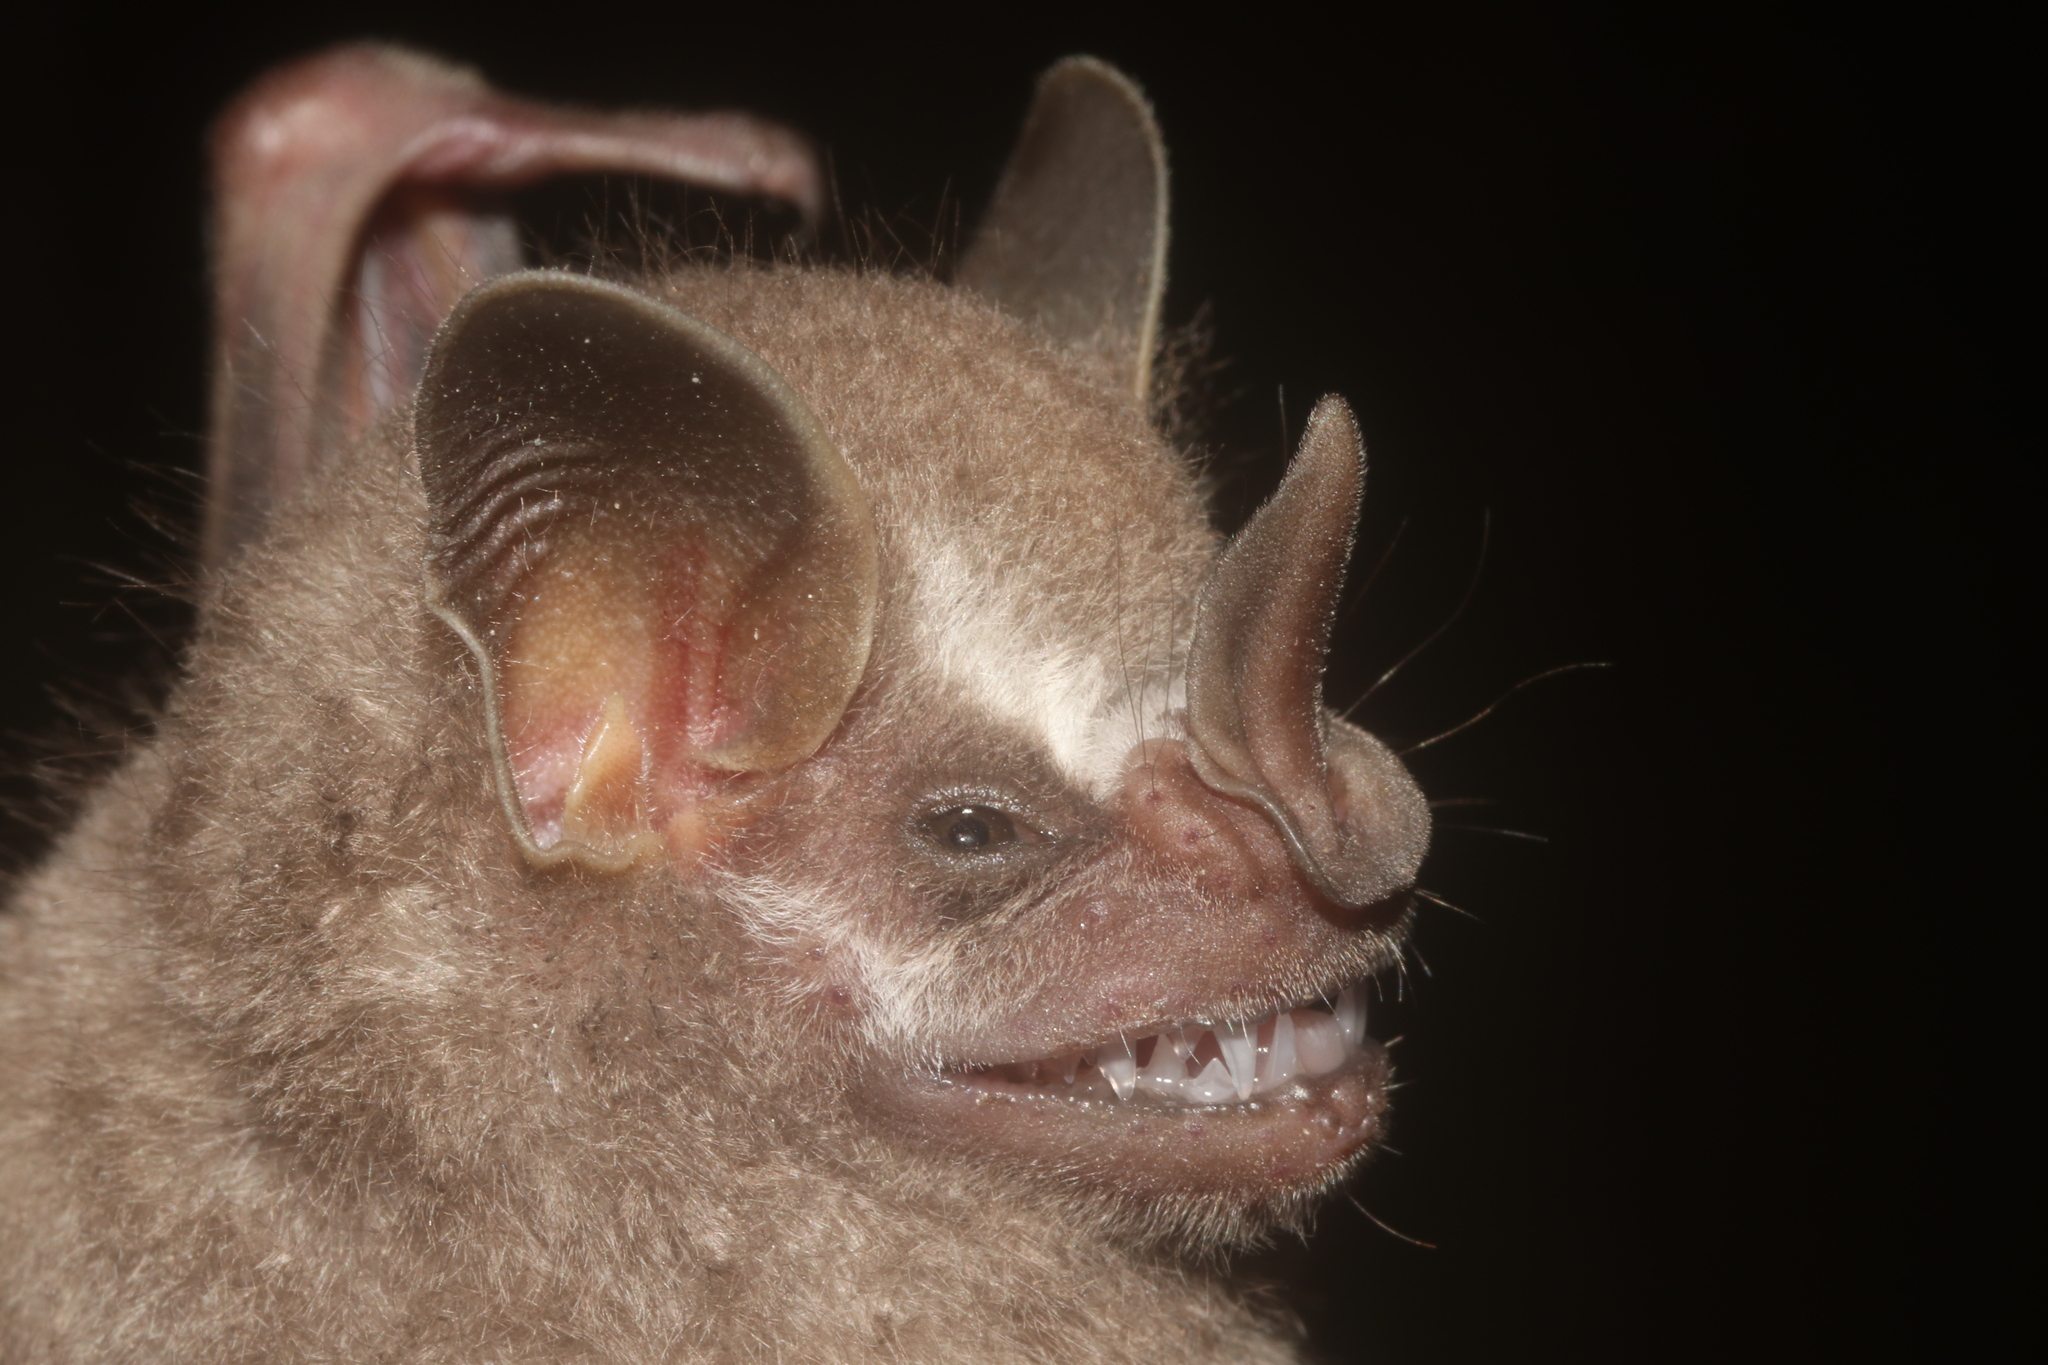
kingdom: Animalia
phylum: Chordata
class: Mammalia
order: Chiroptera
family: Phyllostomidae
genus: Artibeus
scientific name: Artibeus phaeotis
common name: Pygmy fruit-eating bat
